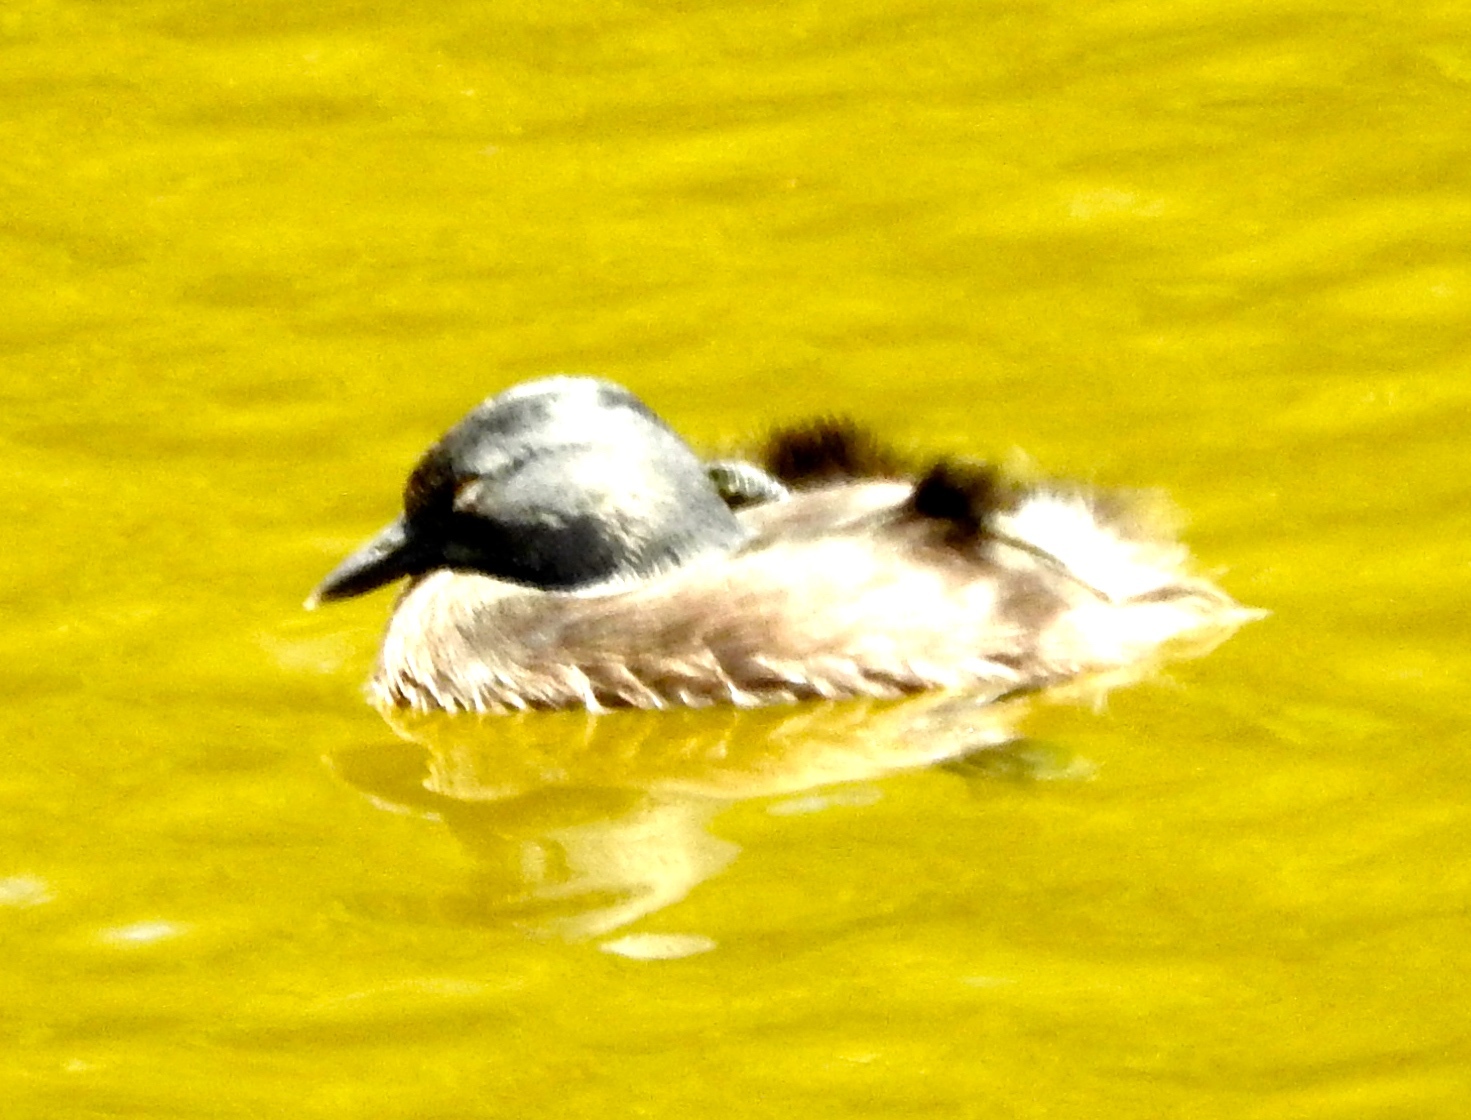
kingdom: Animalia
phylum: Chordata
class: Aves
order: Podicipediformes
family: Podicipedidae
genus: Tachybaptus
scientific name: Tachybaptus dominicus
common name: Least grebe
